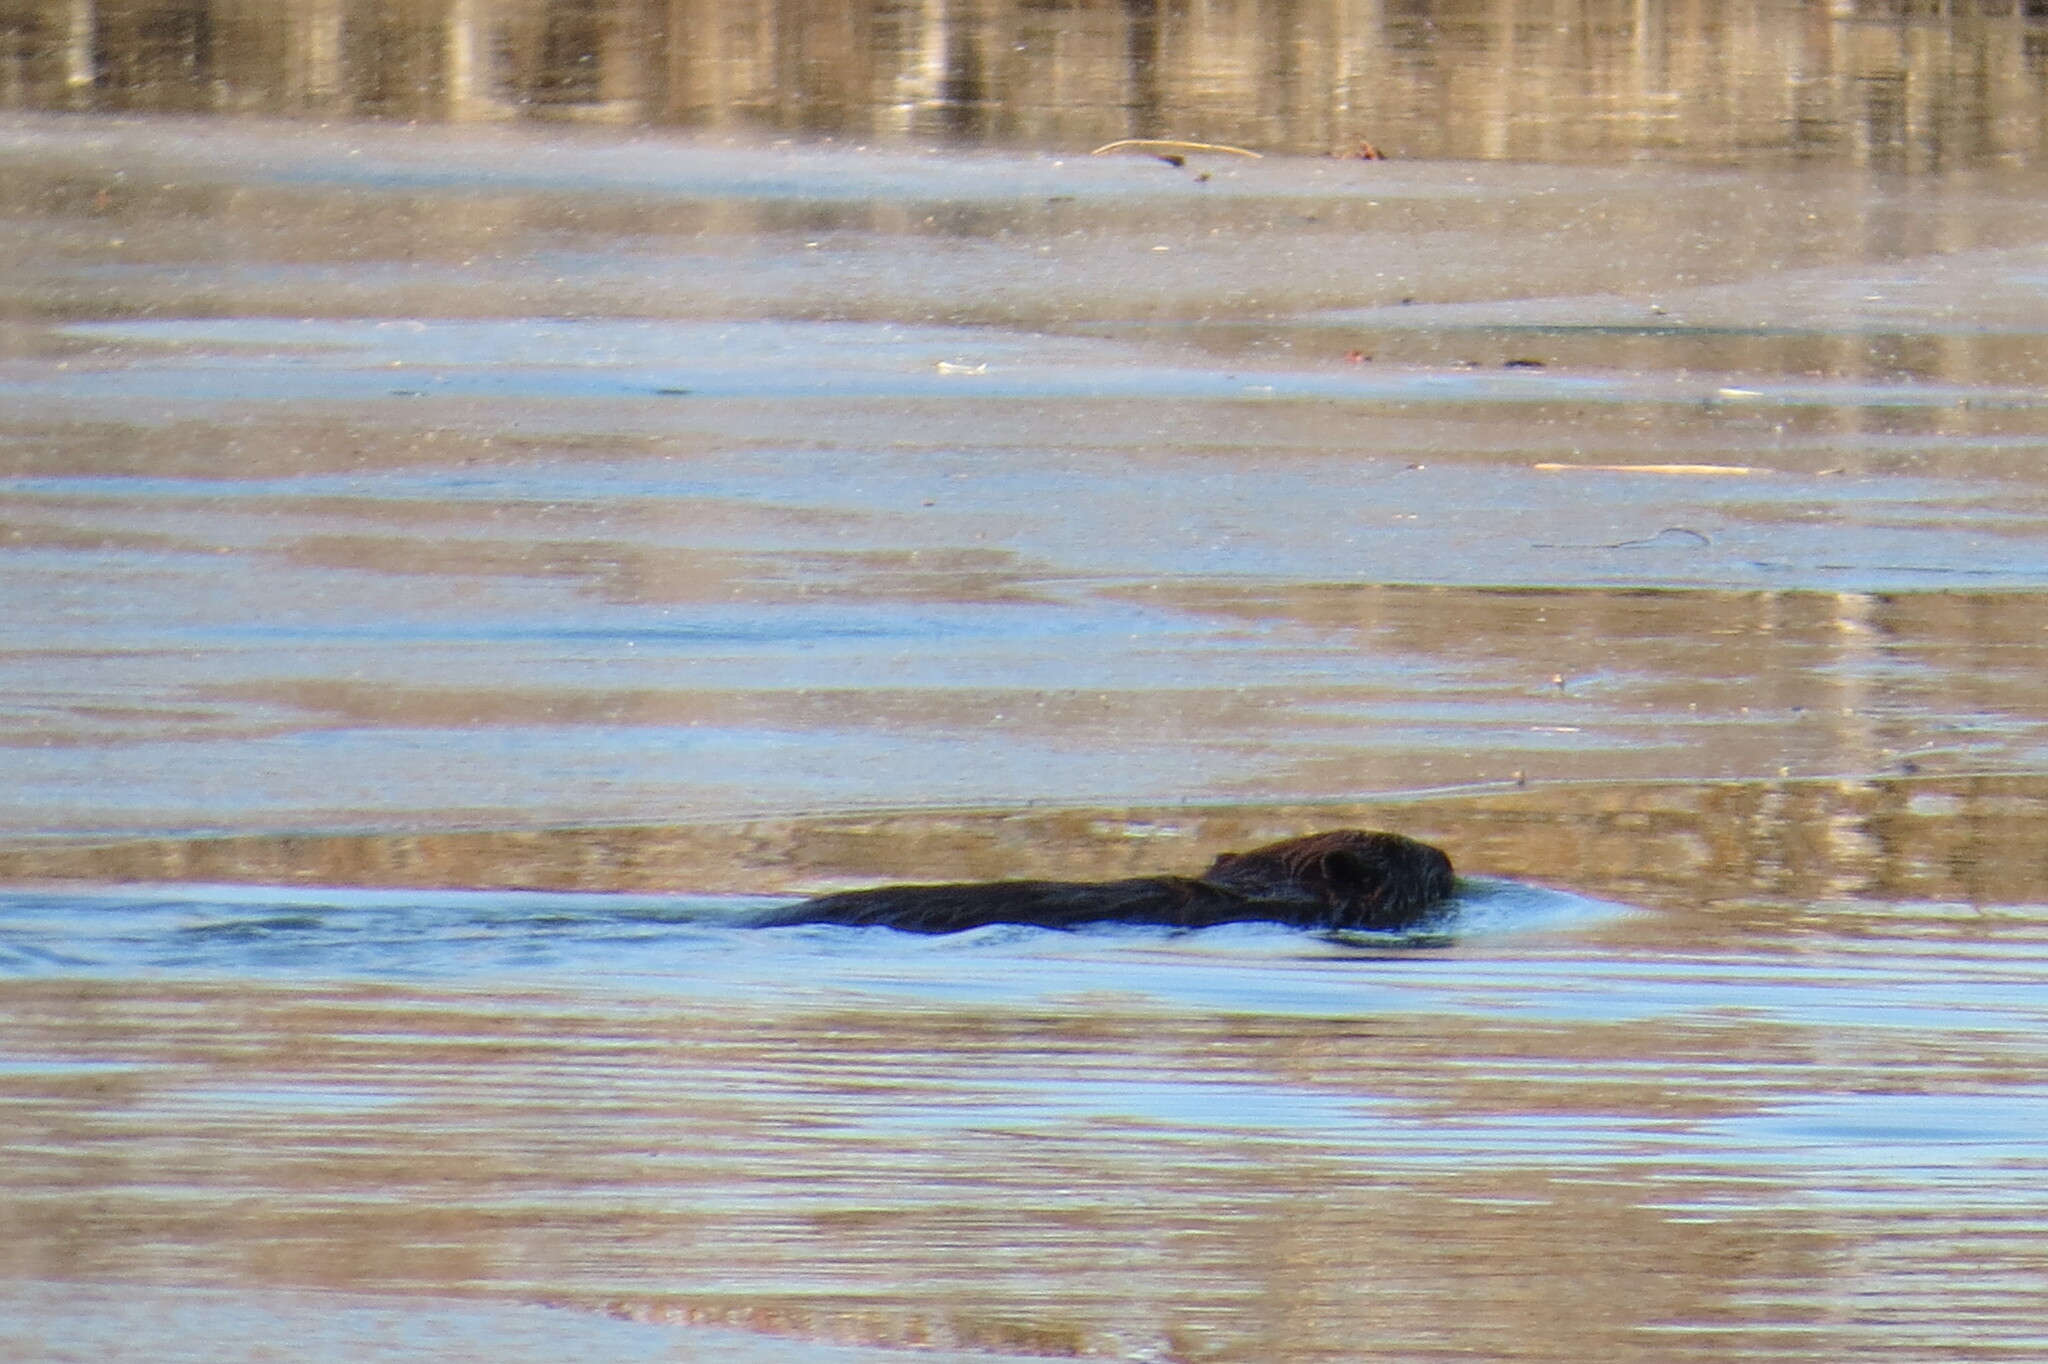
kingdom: Animalia
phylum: Chordata
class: Mammalia
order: Rodentia
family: Castoridae
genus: Castor
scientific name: Castor canadensis
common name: American beaver
